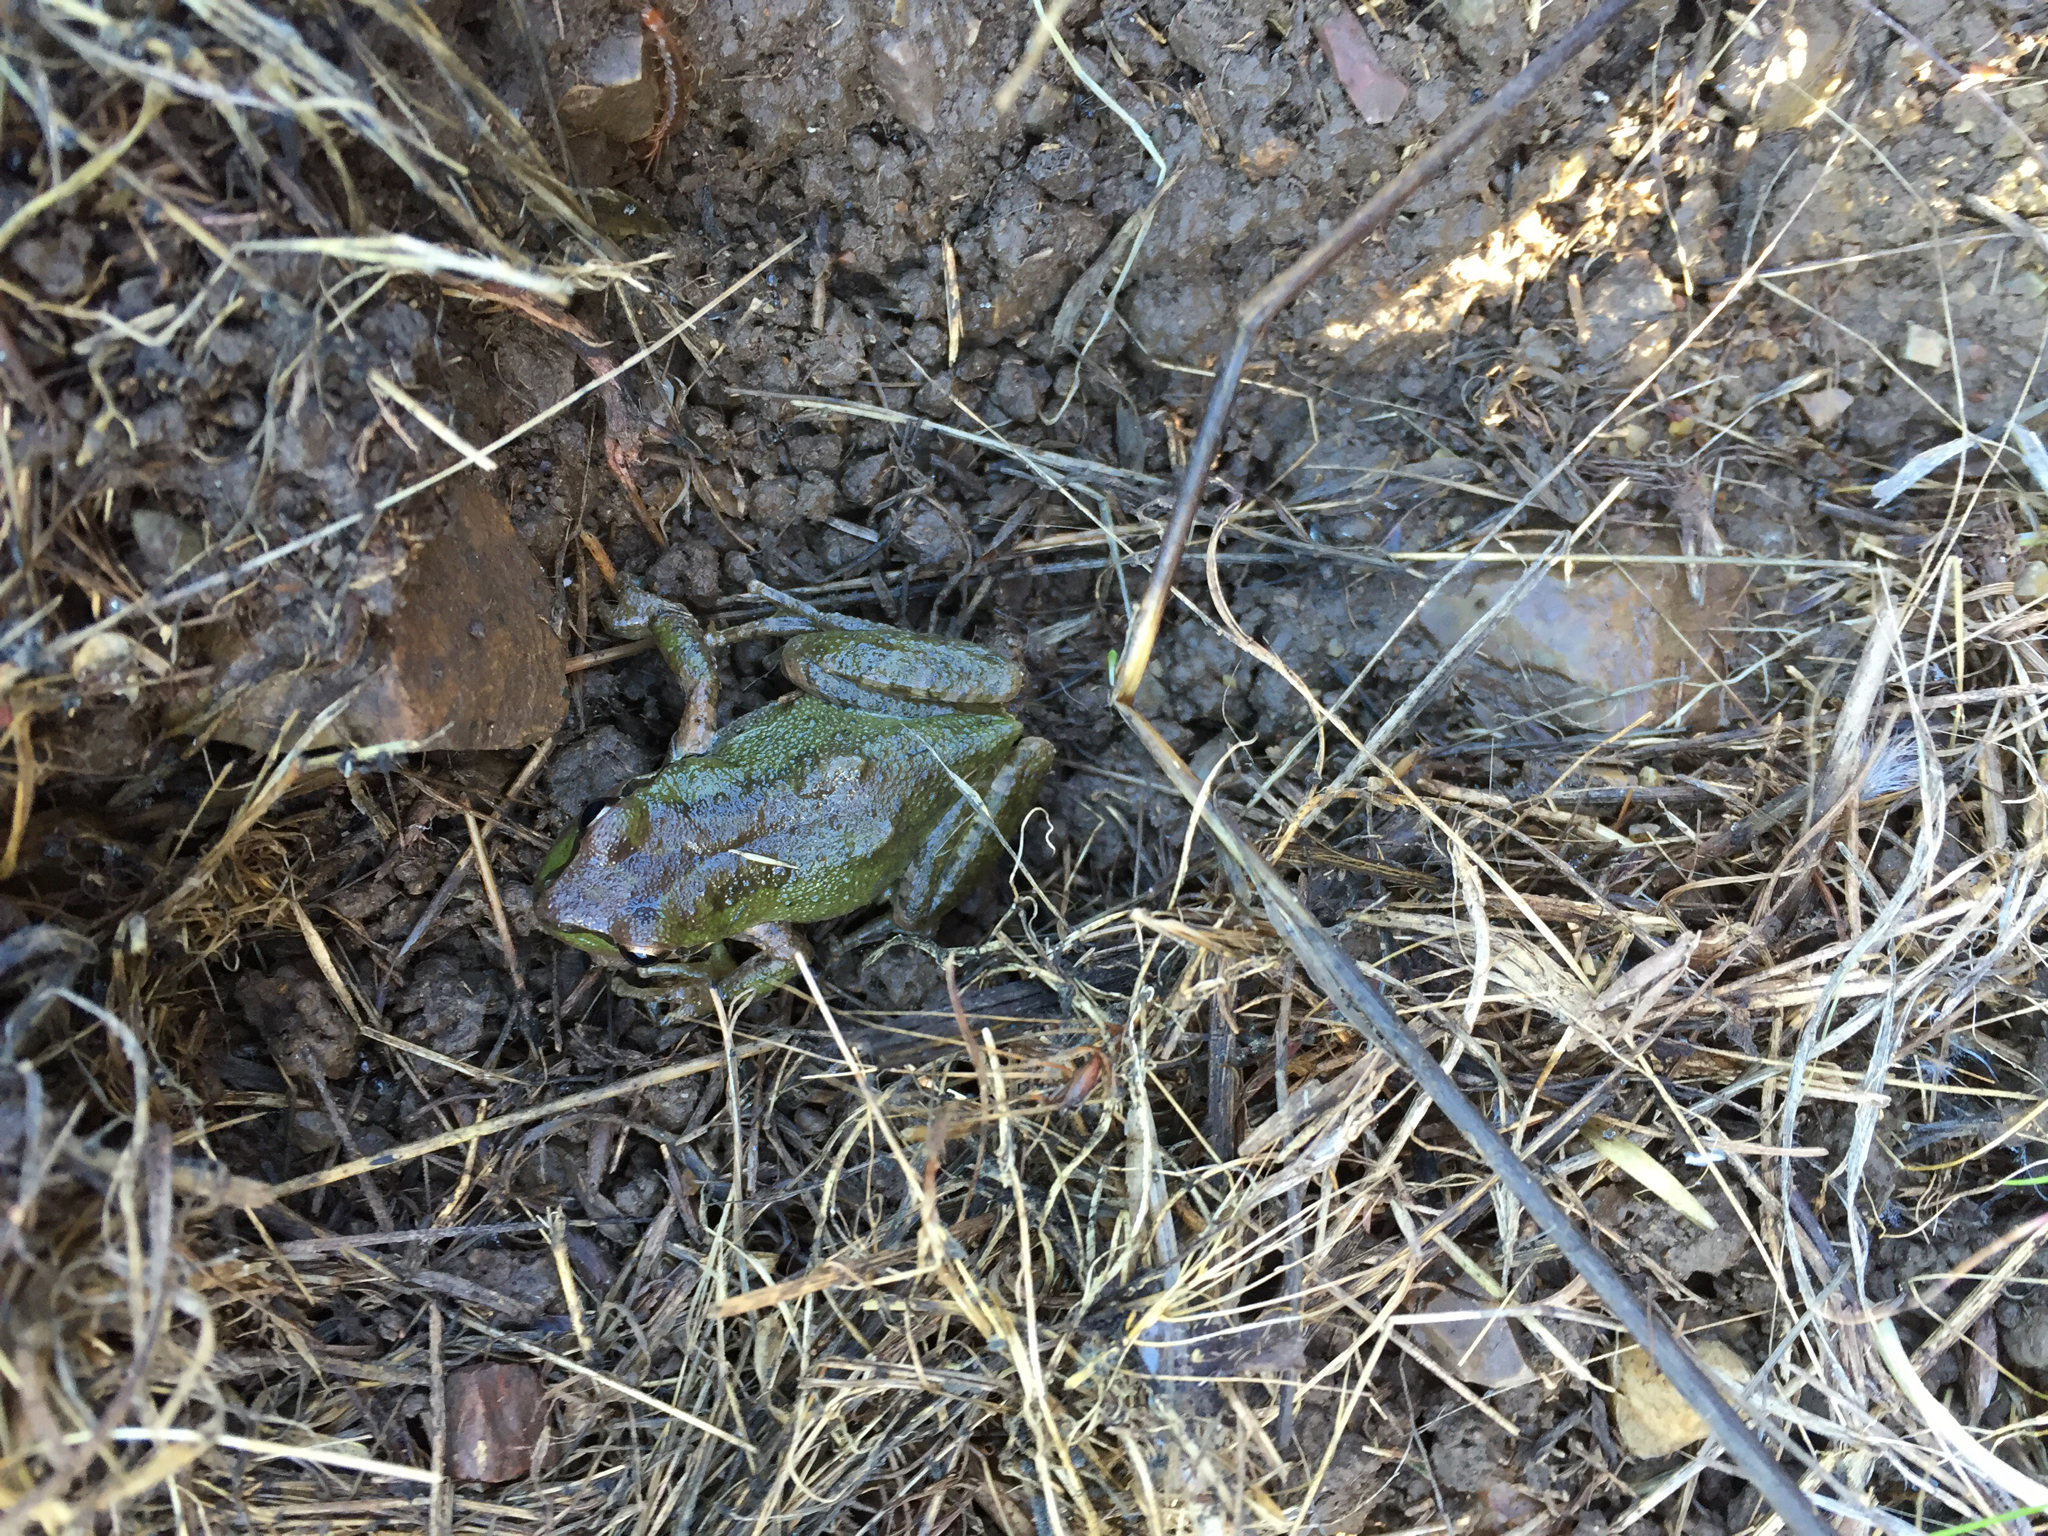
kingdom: Animalia
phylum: Chordata
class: Amphibia
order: Anura
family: Hylidae
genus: Pseudacris
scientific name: Pseudacris regilla
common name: Pacific chorus frog
